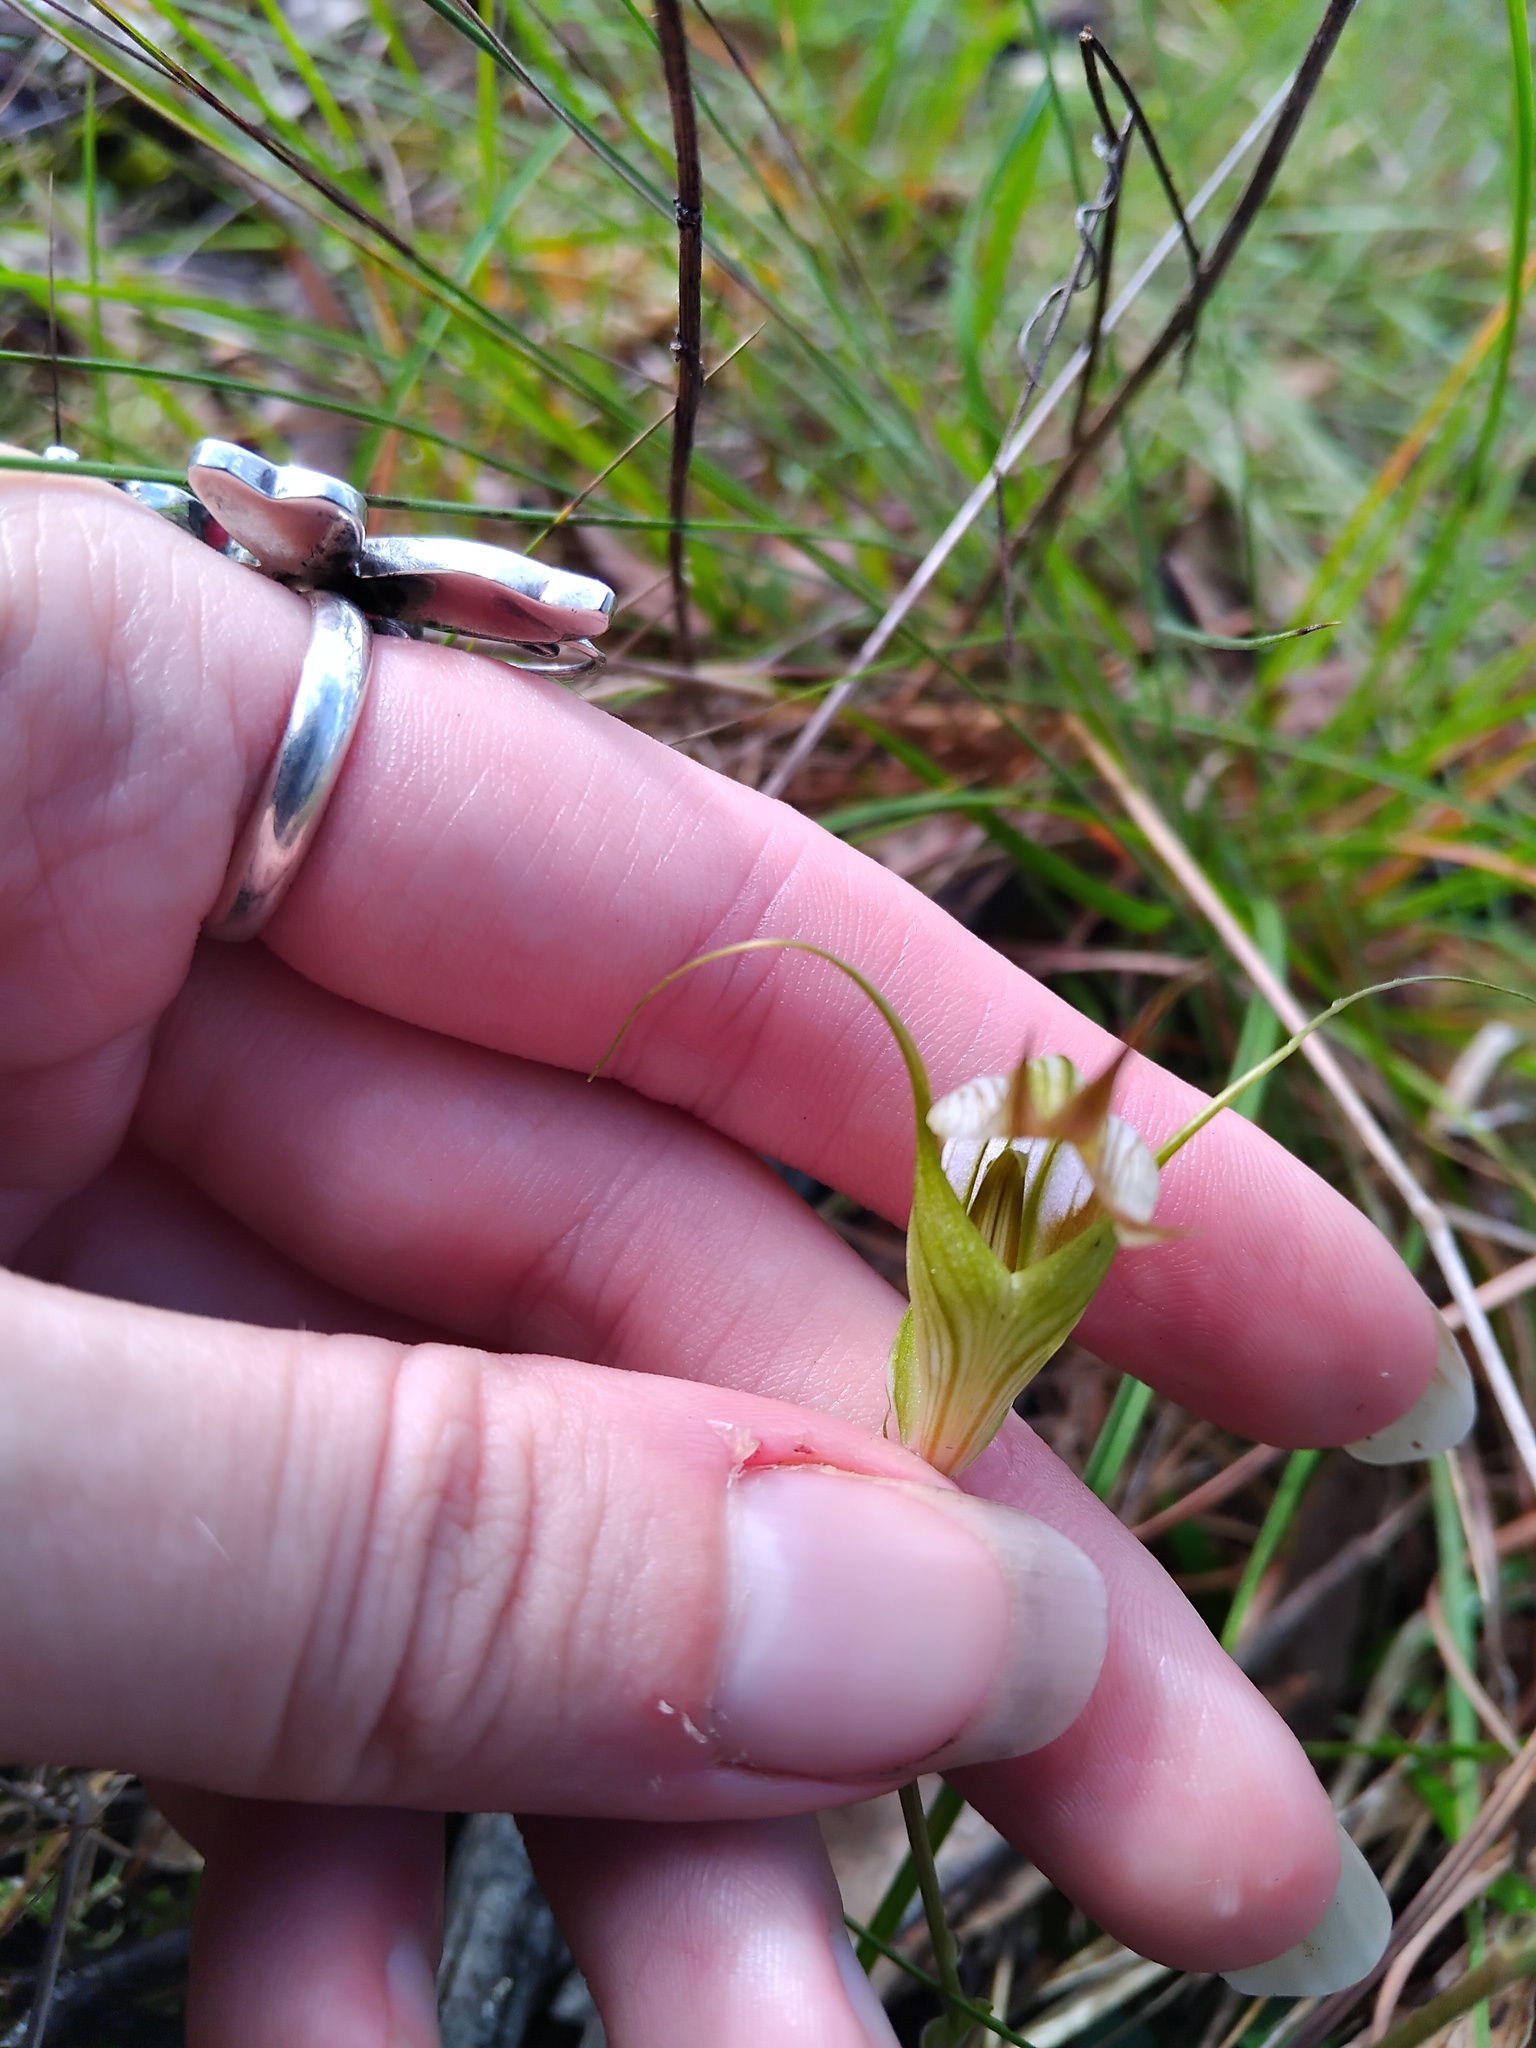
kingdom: Plantae
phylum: Tracheophyta
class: Liliopsida
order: Asparagales
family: Orchidaceae
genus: Pterostylis
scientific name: Pterostylis reflexa
